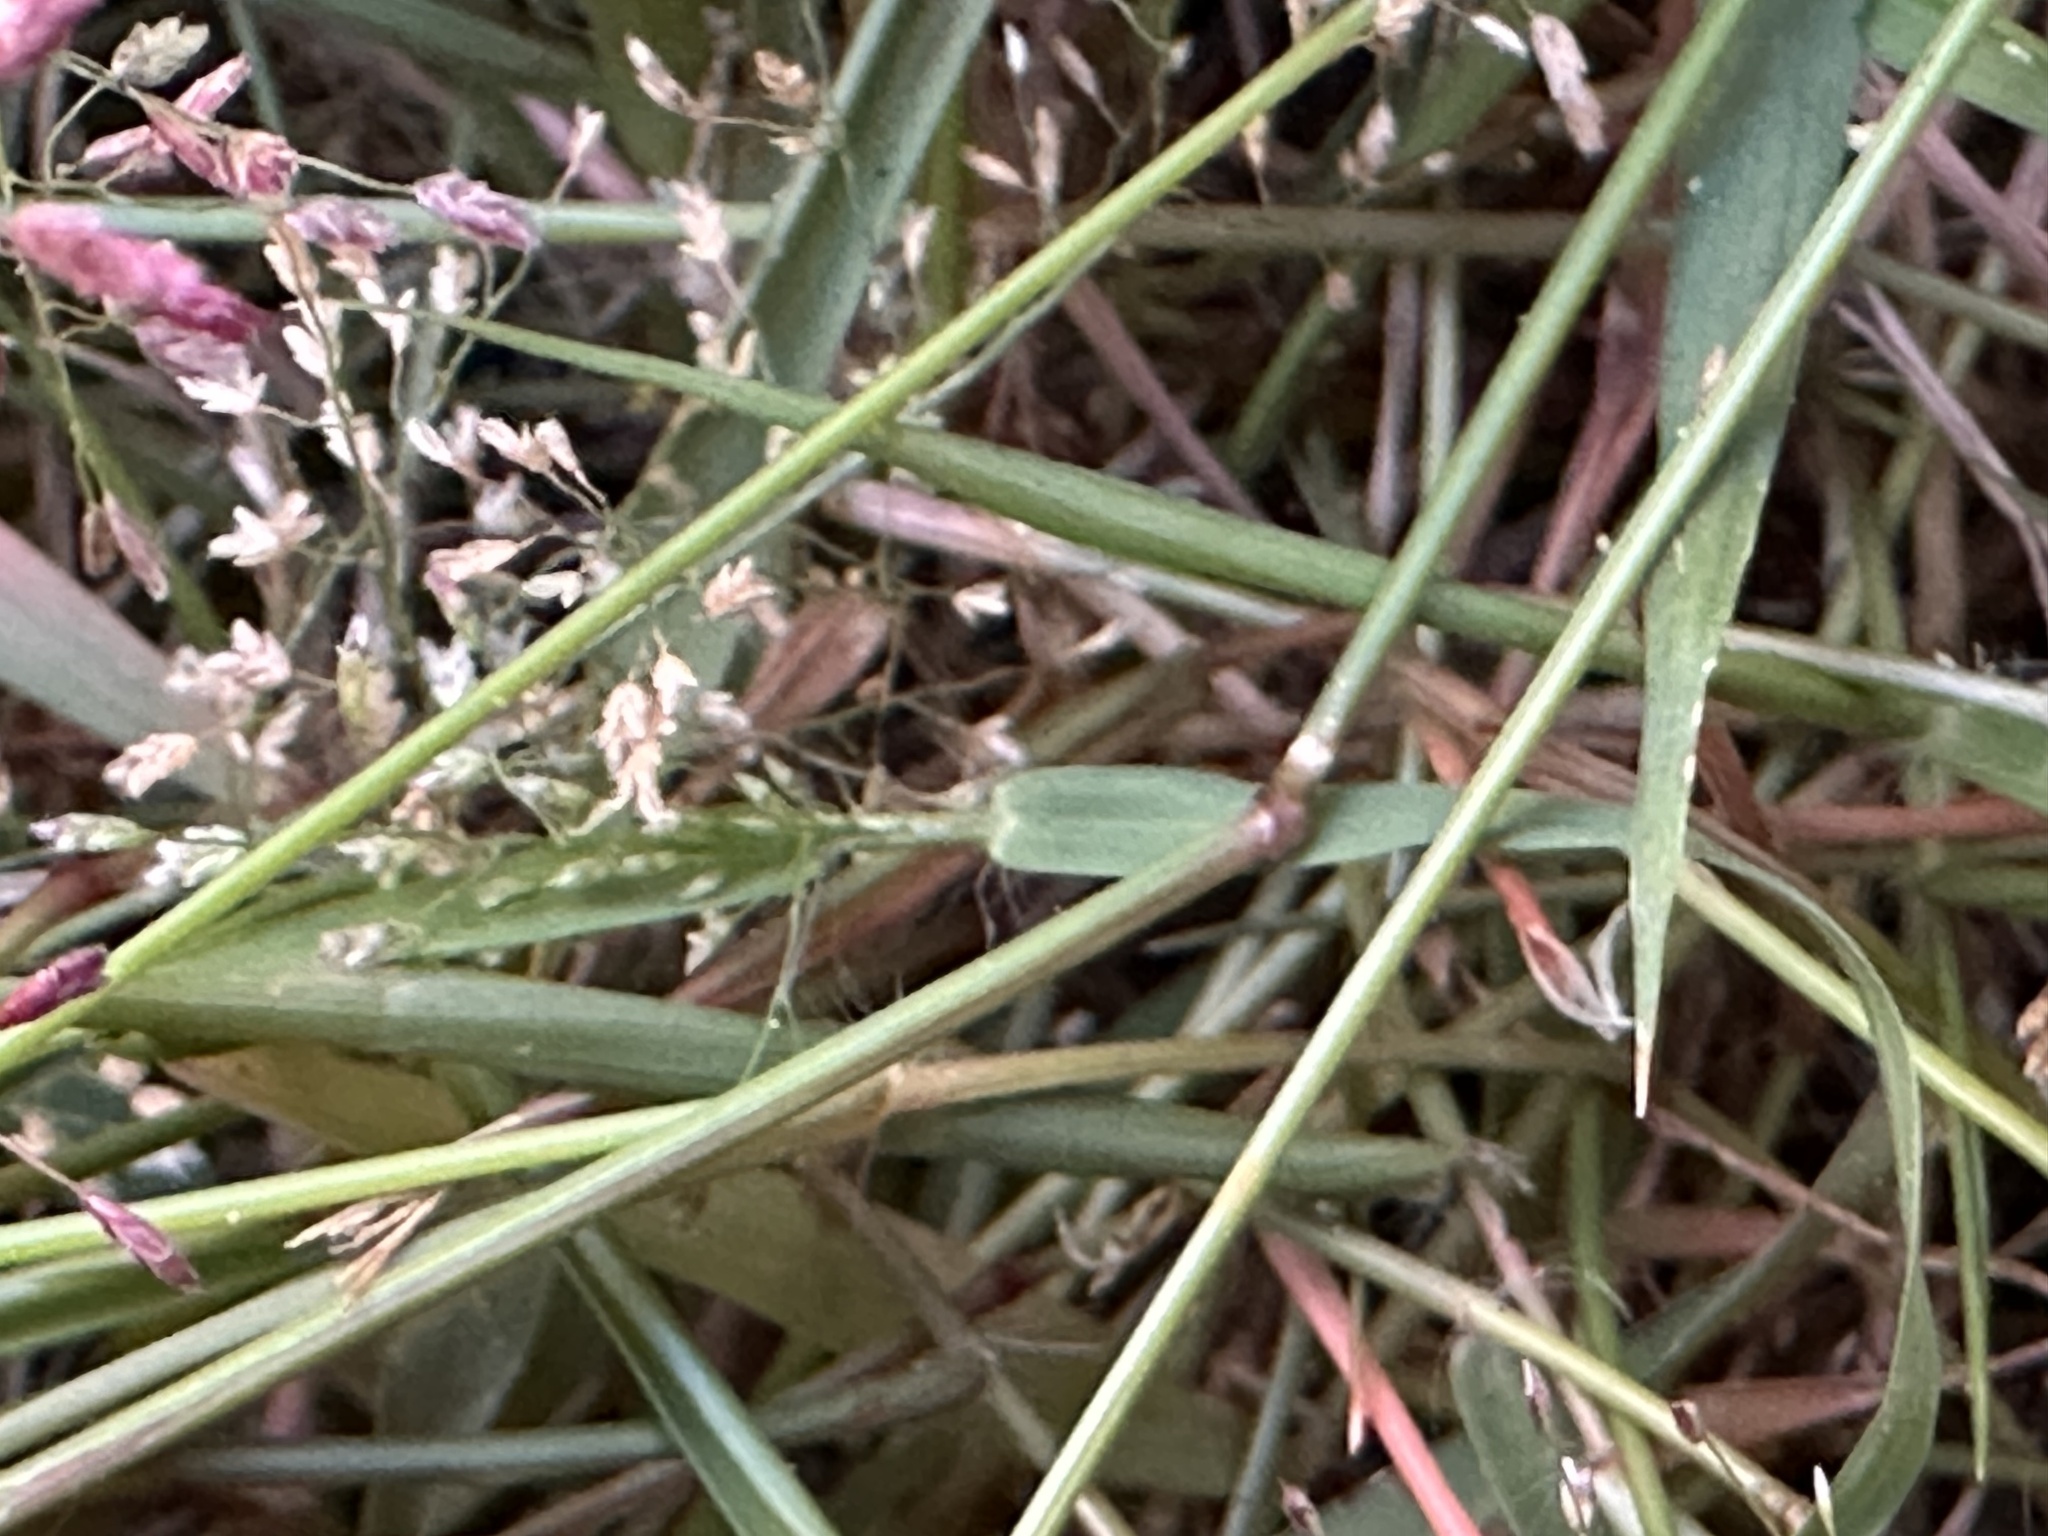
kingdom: Plantae
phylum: Tracheophyta
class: Liliopsida
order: Poales
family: Poaceae
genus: Eragrostis
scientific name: Eragrostis tenella
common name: Japanese lovegrass
